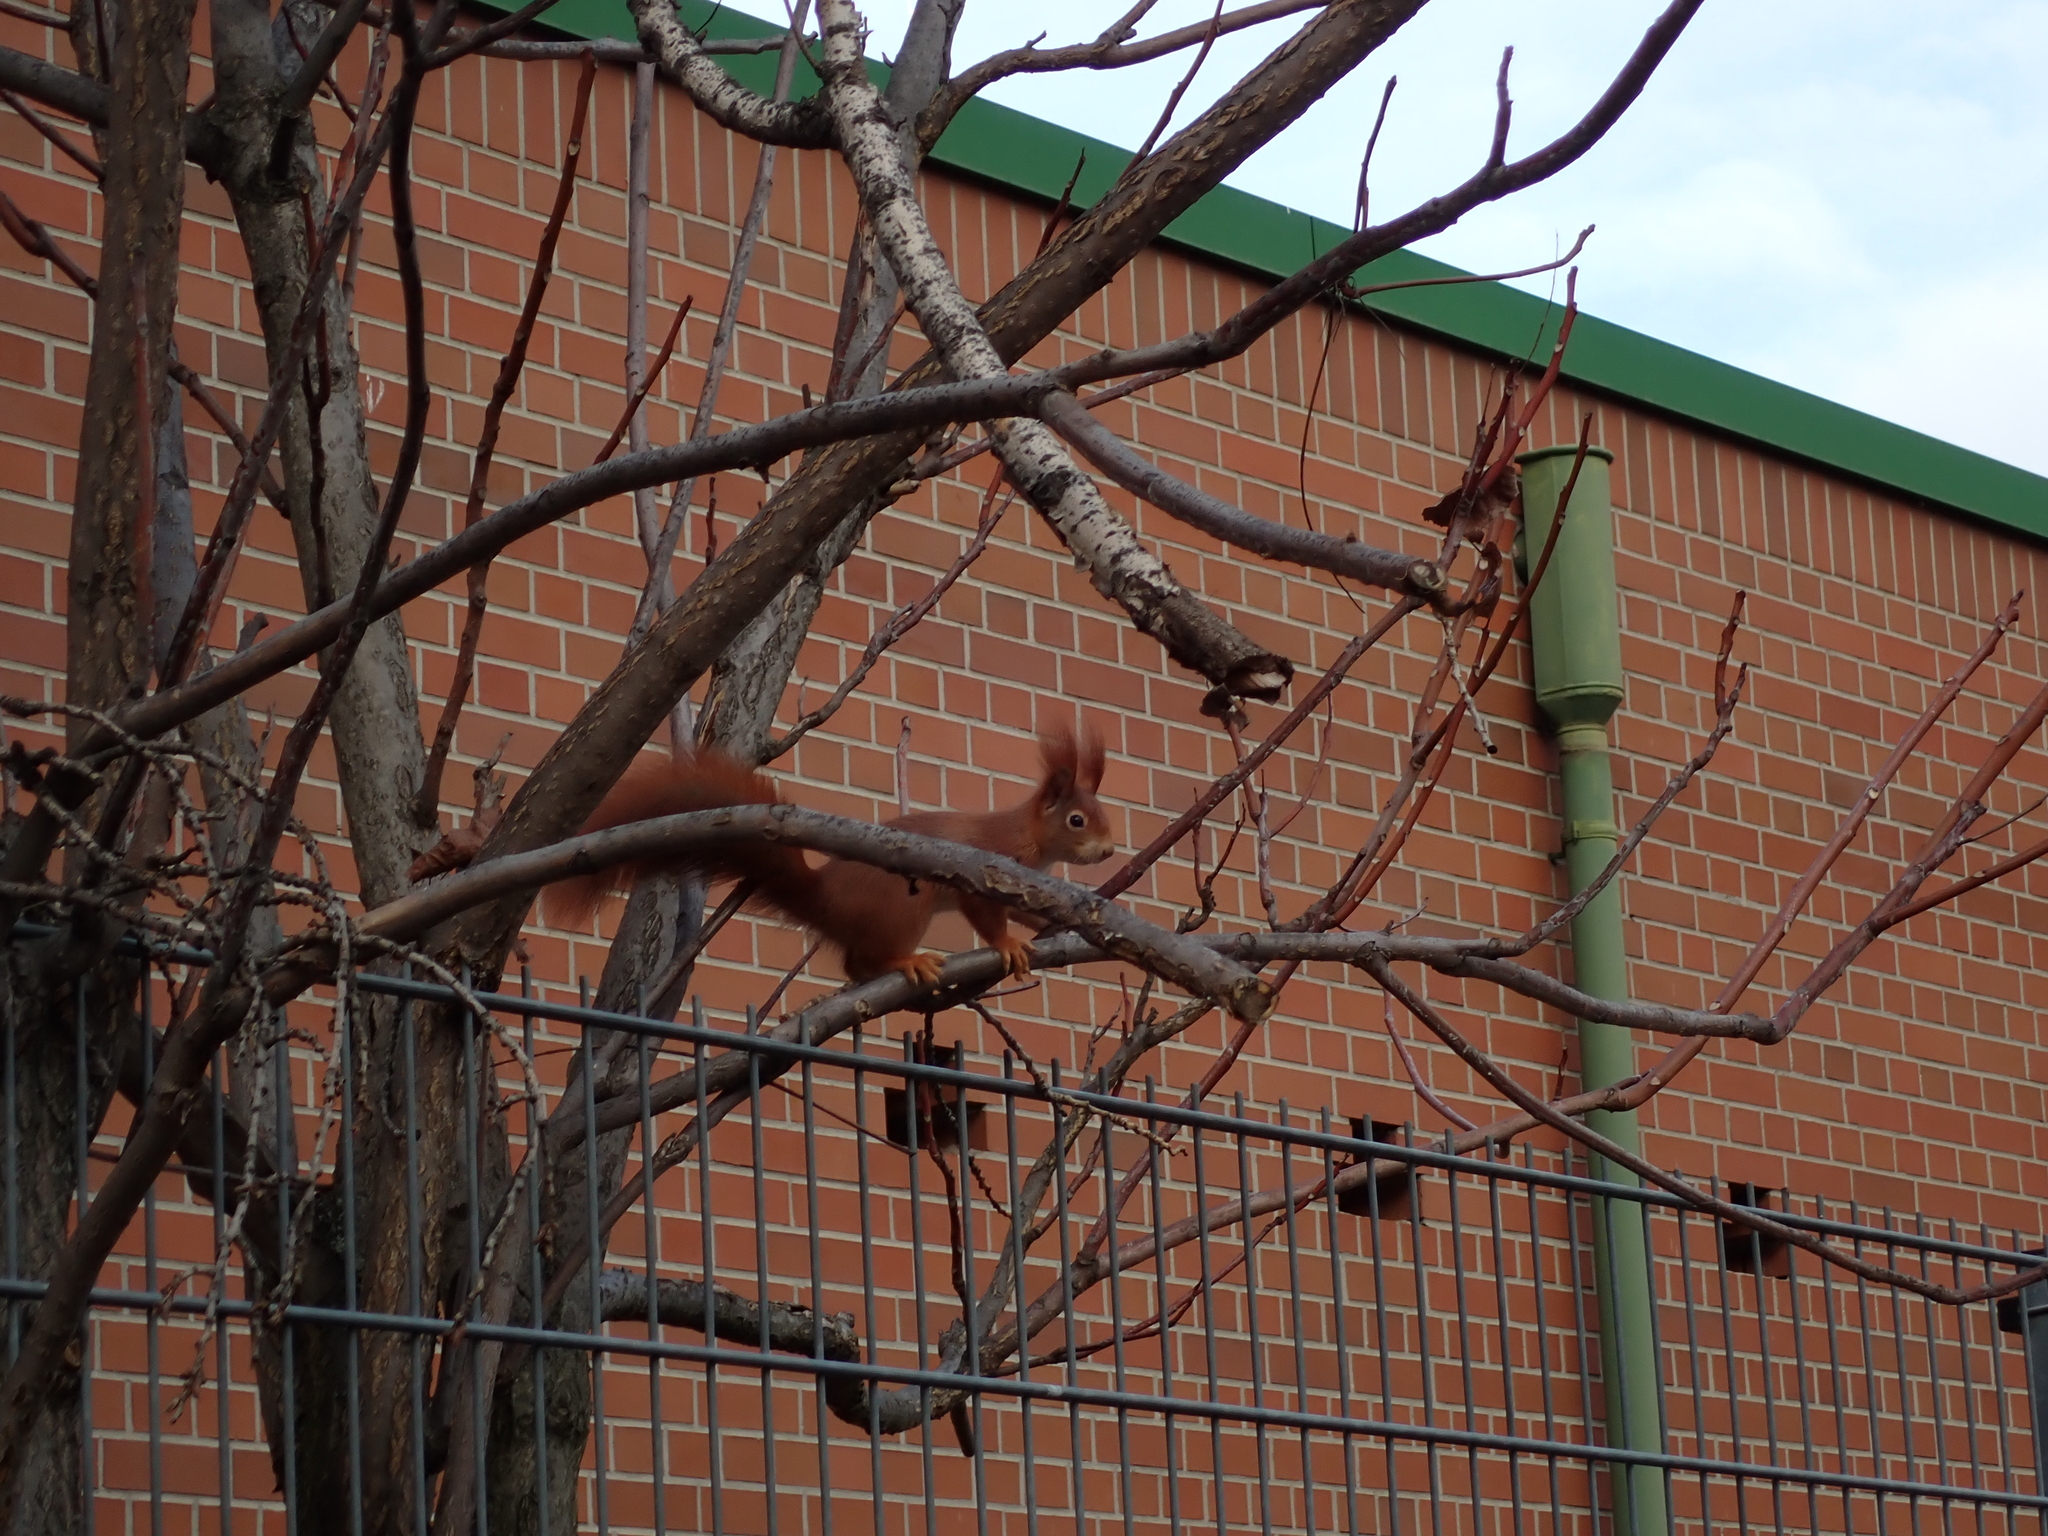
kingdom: Animalia
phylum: Chordata
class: Mammalia
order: Rodentia
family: Sciuridae
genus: Sciurus
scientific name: Sciurus vulgaris
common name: Eurasian red squirrel
